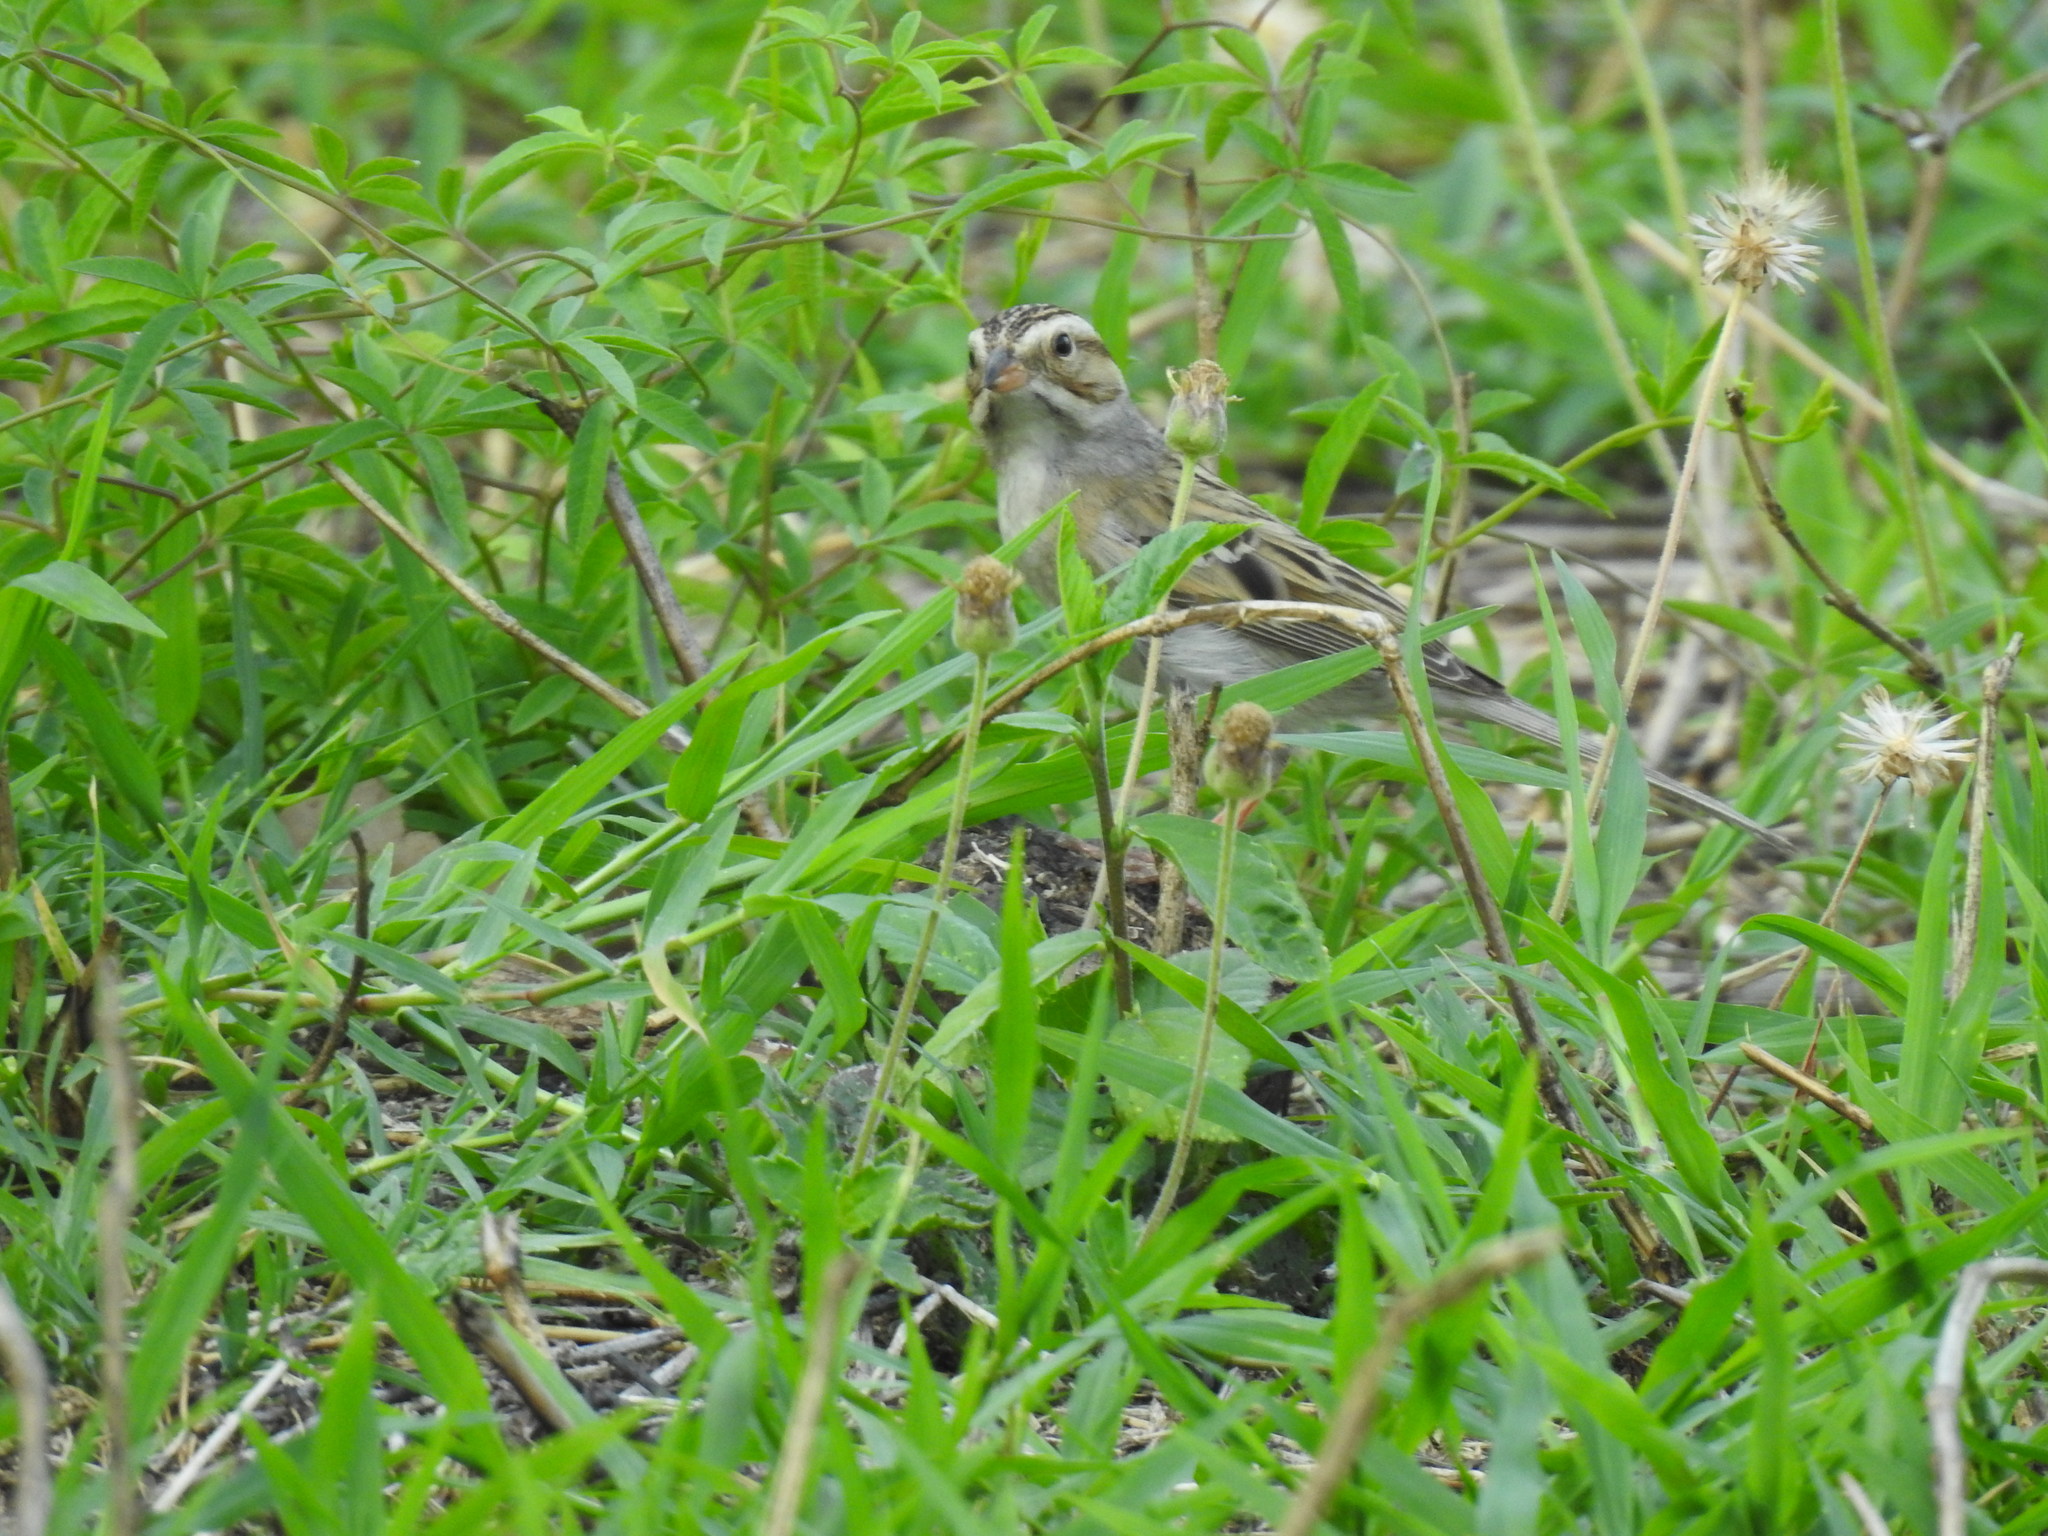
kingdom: Animalia
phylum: Chordata
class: Aves
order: Passeriformes
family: Passerellidae
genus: Spizella
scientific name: Spizella pallida
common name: Clay-colored sparrow
